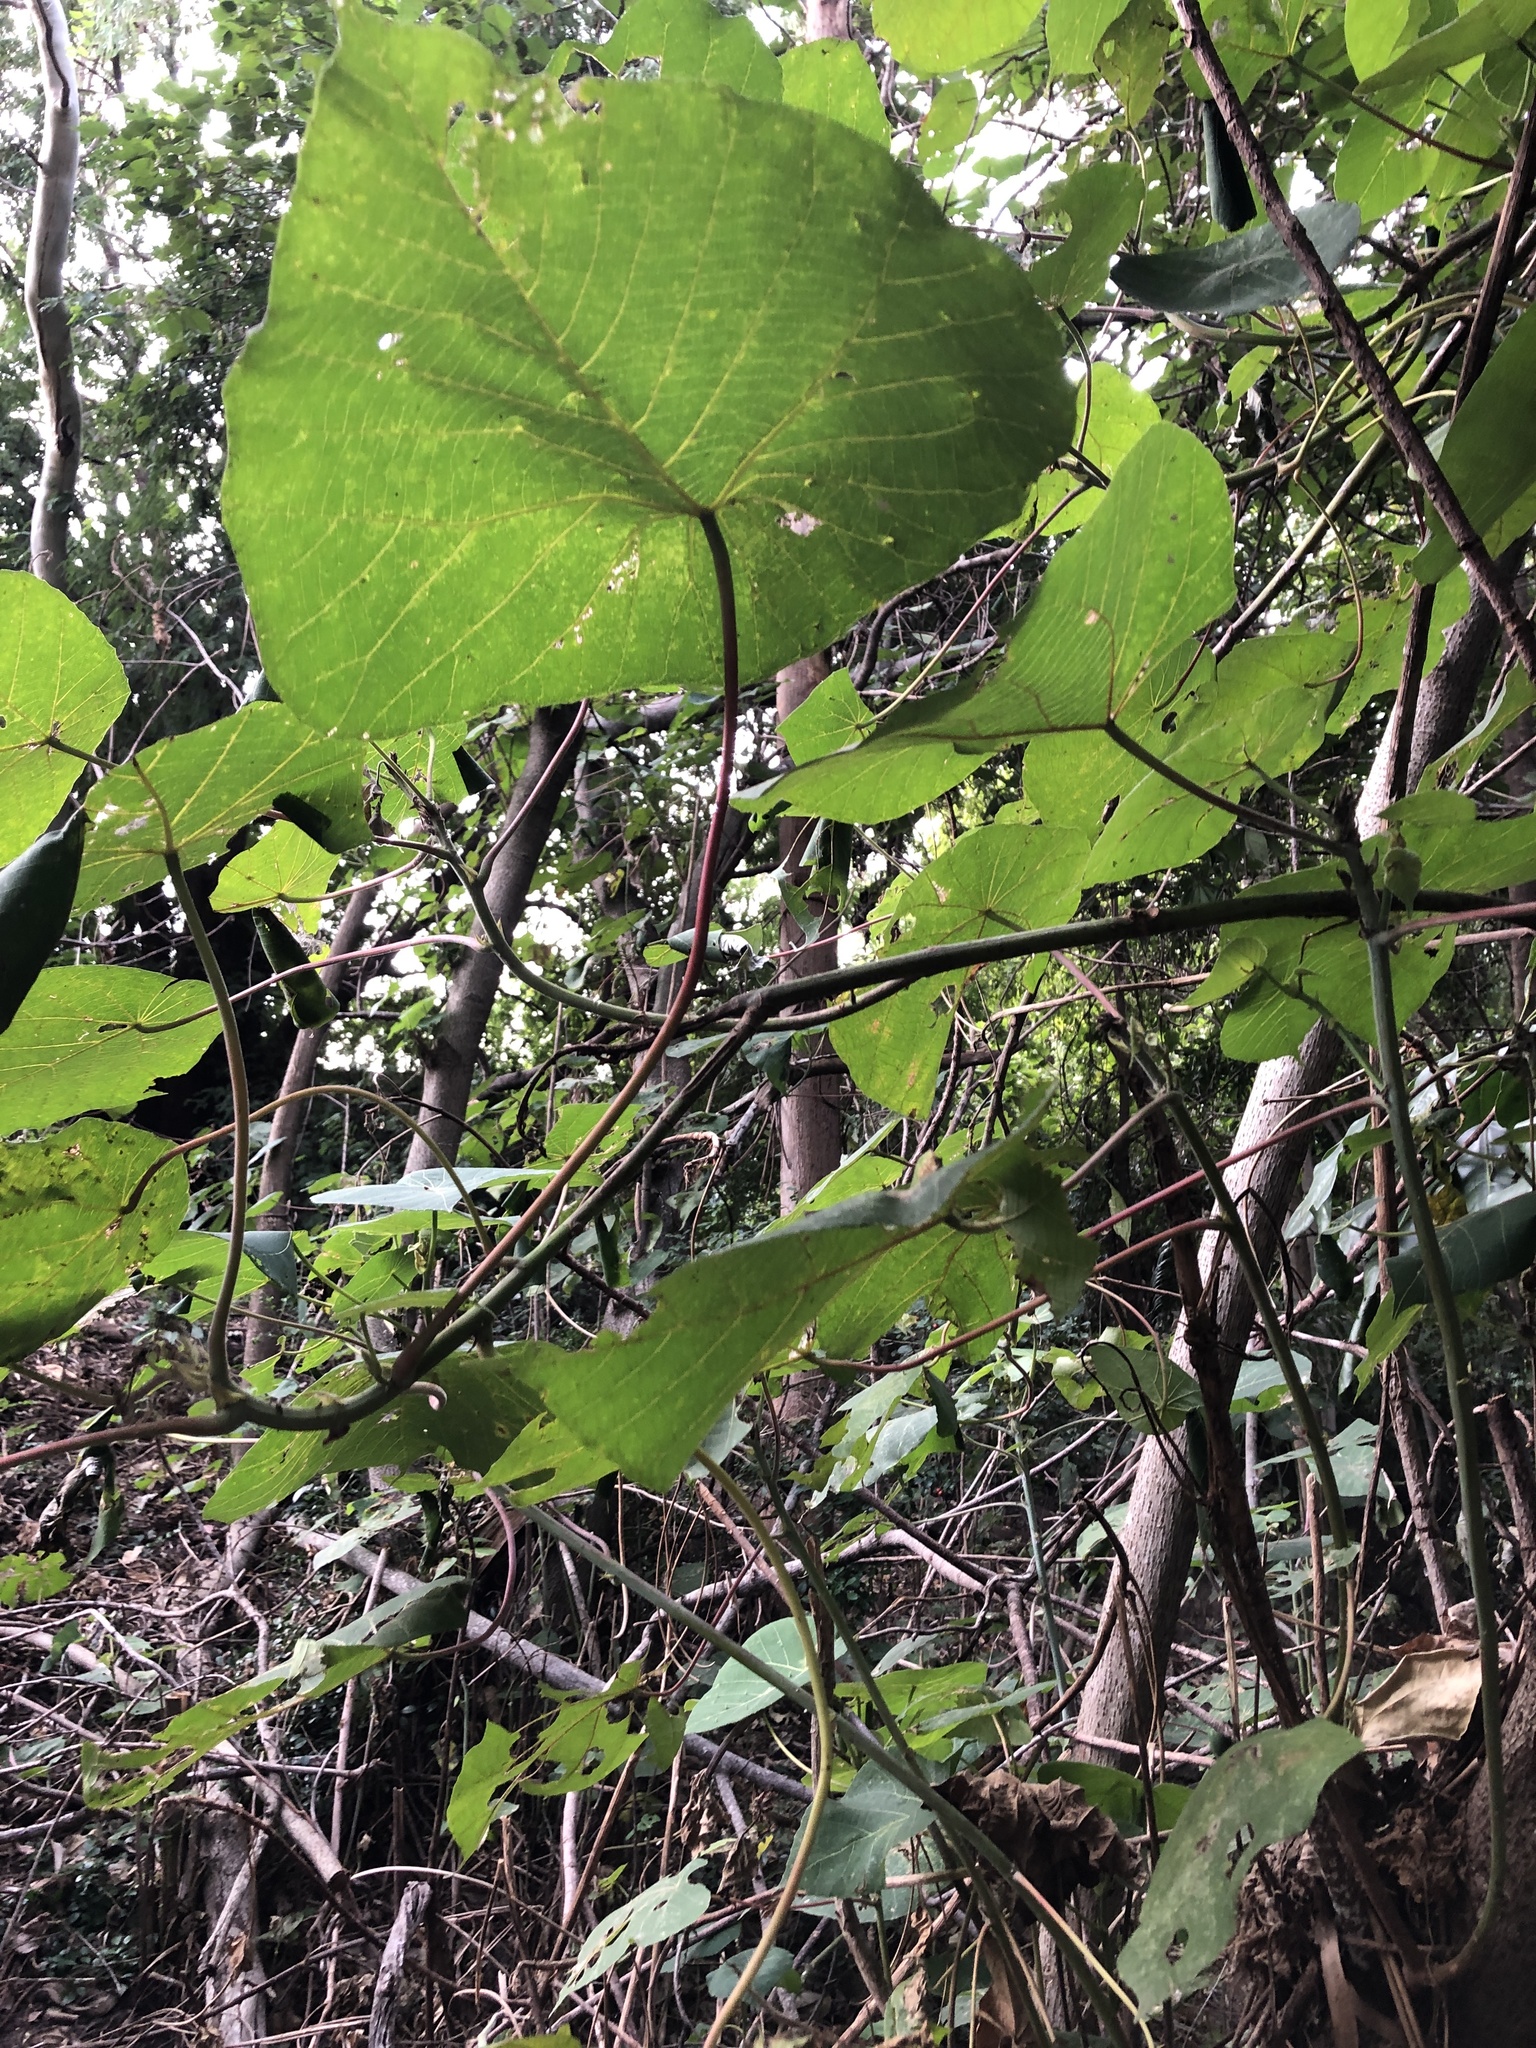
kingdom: Plantae
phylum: Tracheophyta
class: Magnoliopsida
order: Malpighiales
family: Euphorbiaceae
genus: Macaranga
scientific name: Macaranga tanarius
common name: Parasol leaf tree
